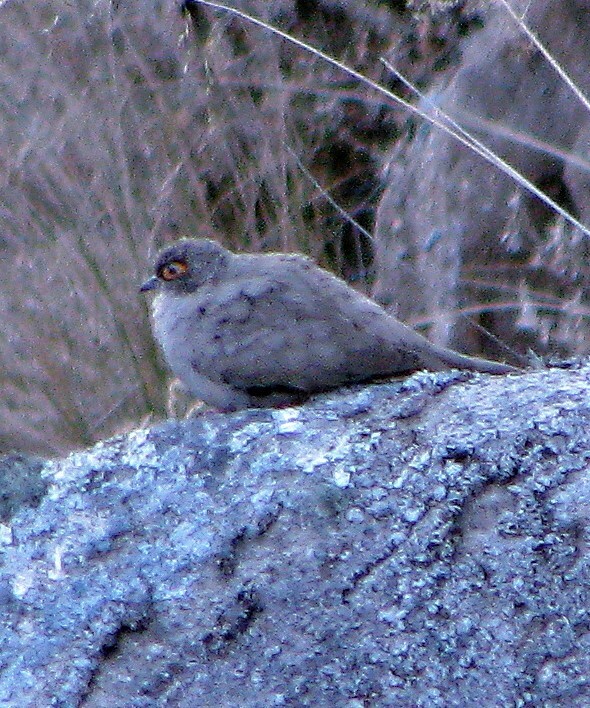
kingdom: Animalia
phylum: Chordata
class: Aves
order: Columbiformes
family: Columbidae
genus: Metriopelia
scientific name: Metriopelia morenoi
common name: Moreno's ground dove
